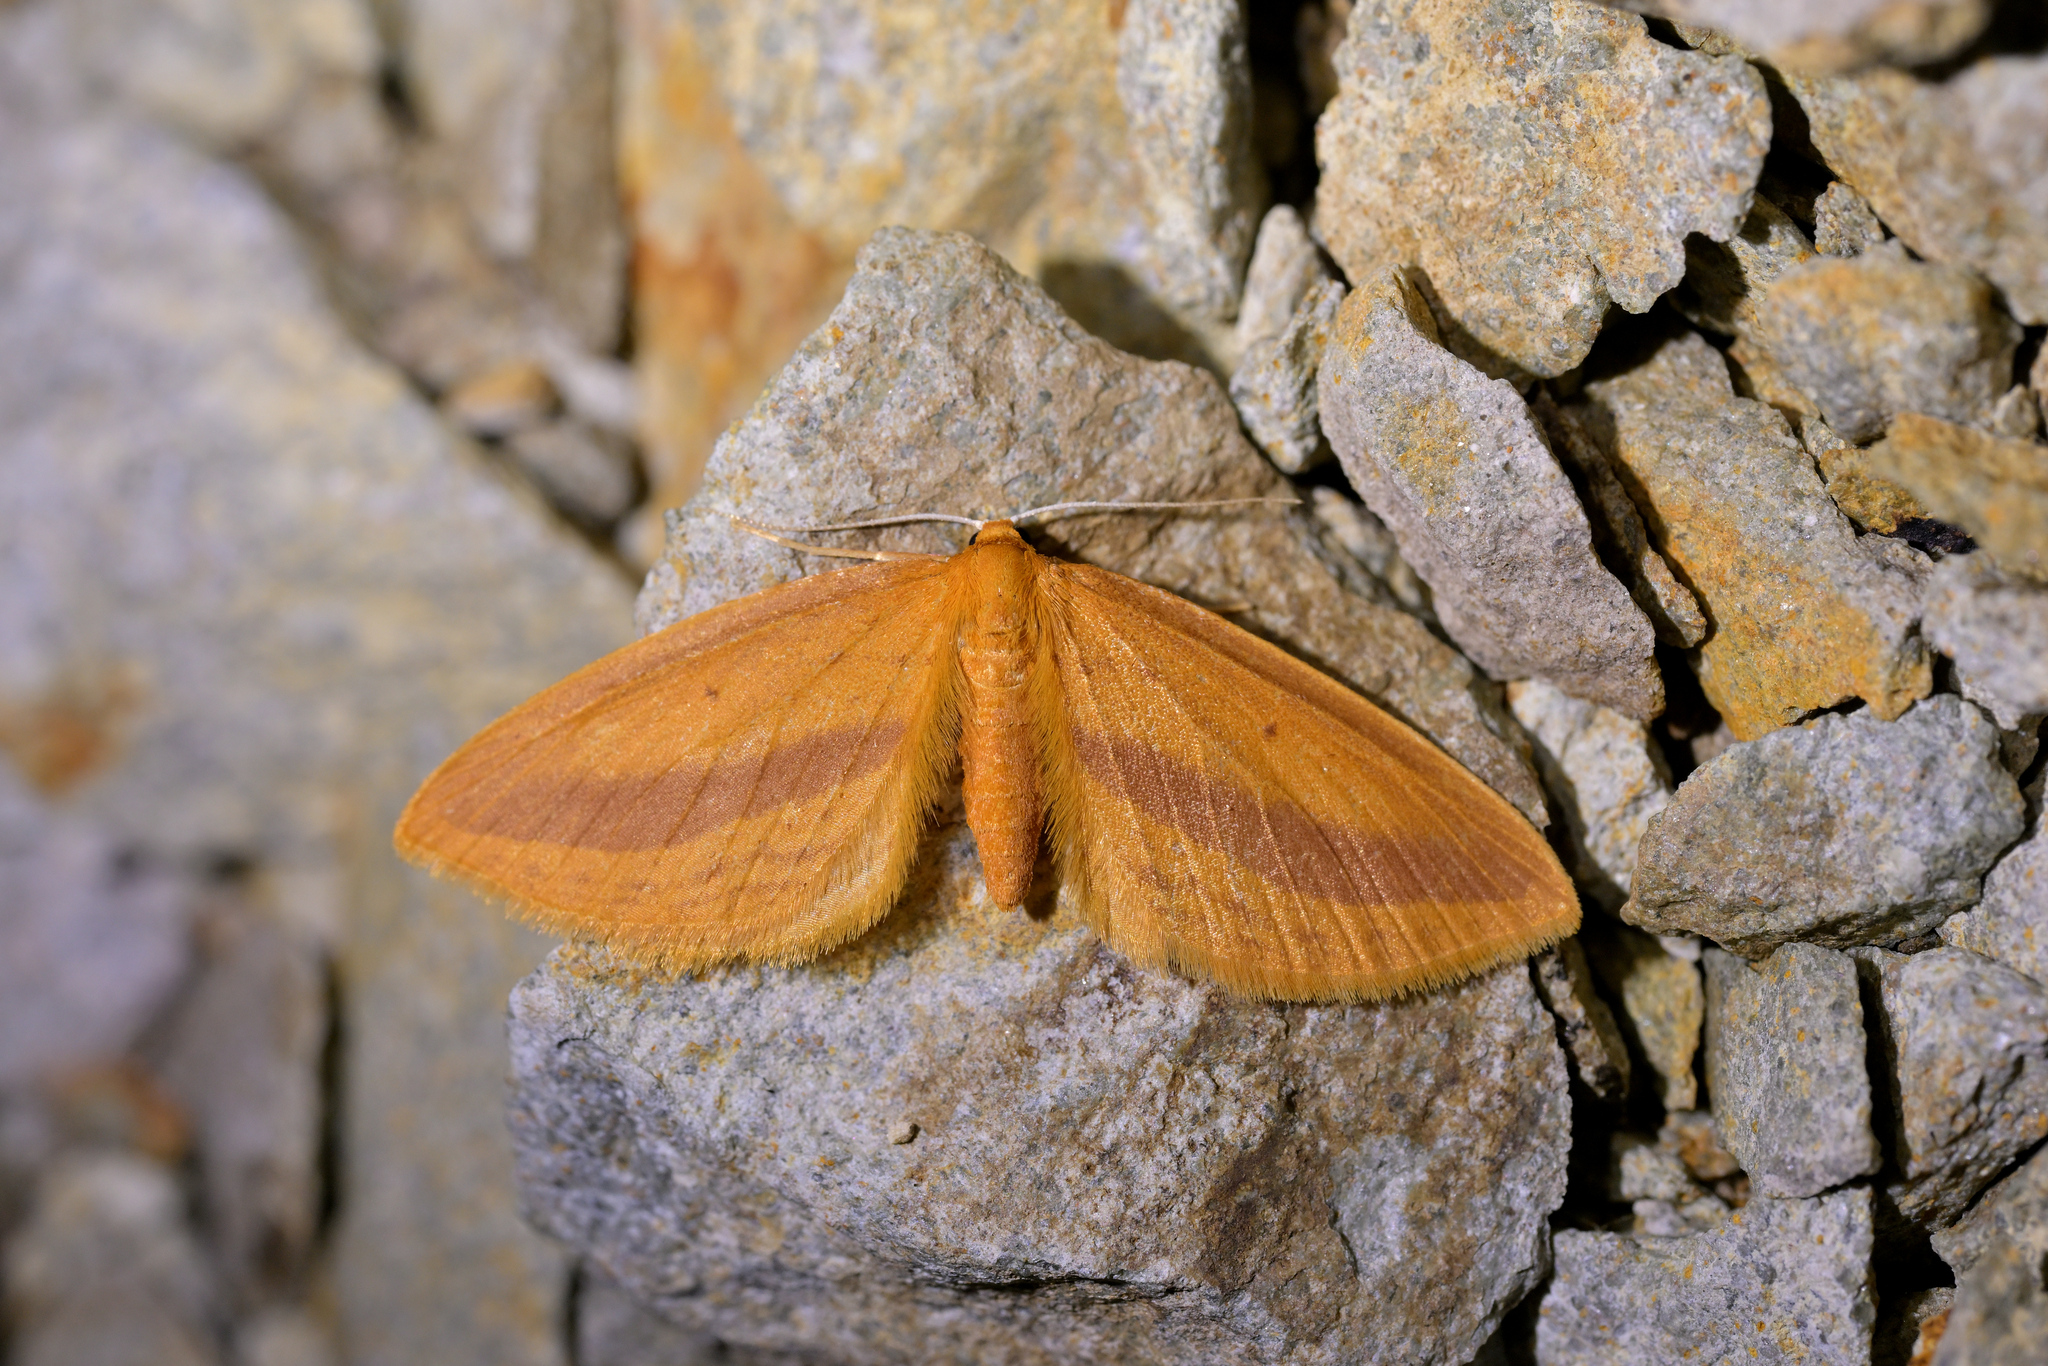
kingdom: Animalia
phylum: Arthropoda
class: Insecta
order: Lepidoptera
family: Geometridae
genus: Epiphryne
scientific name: Epiphryne charidema
